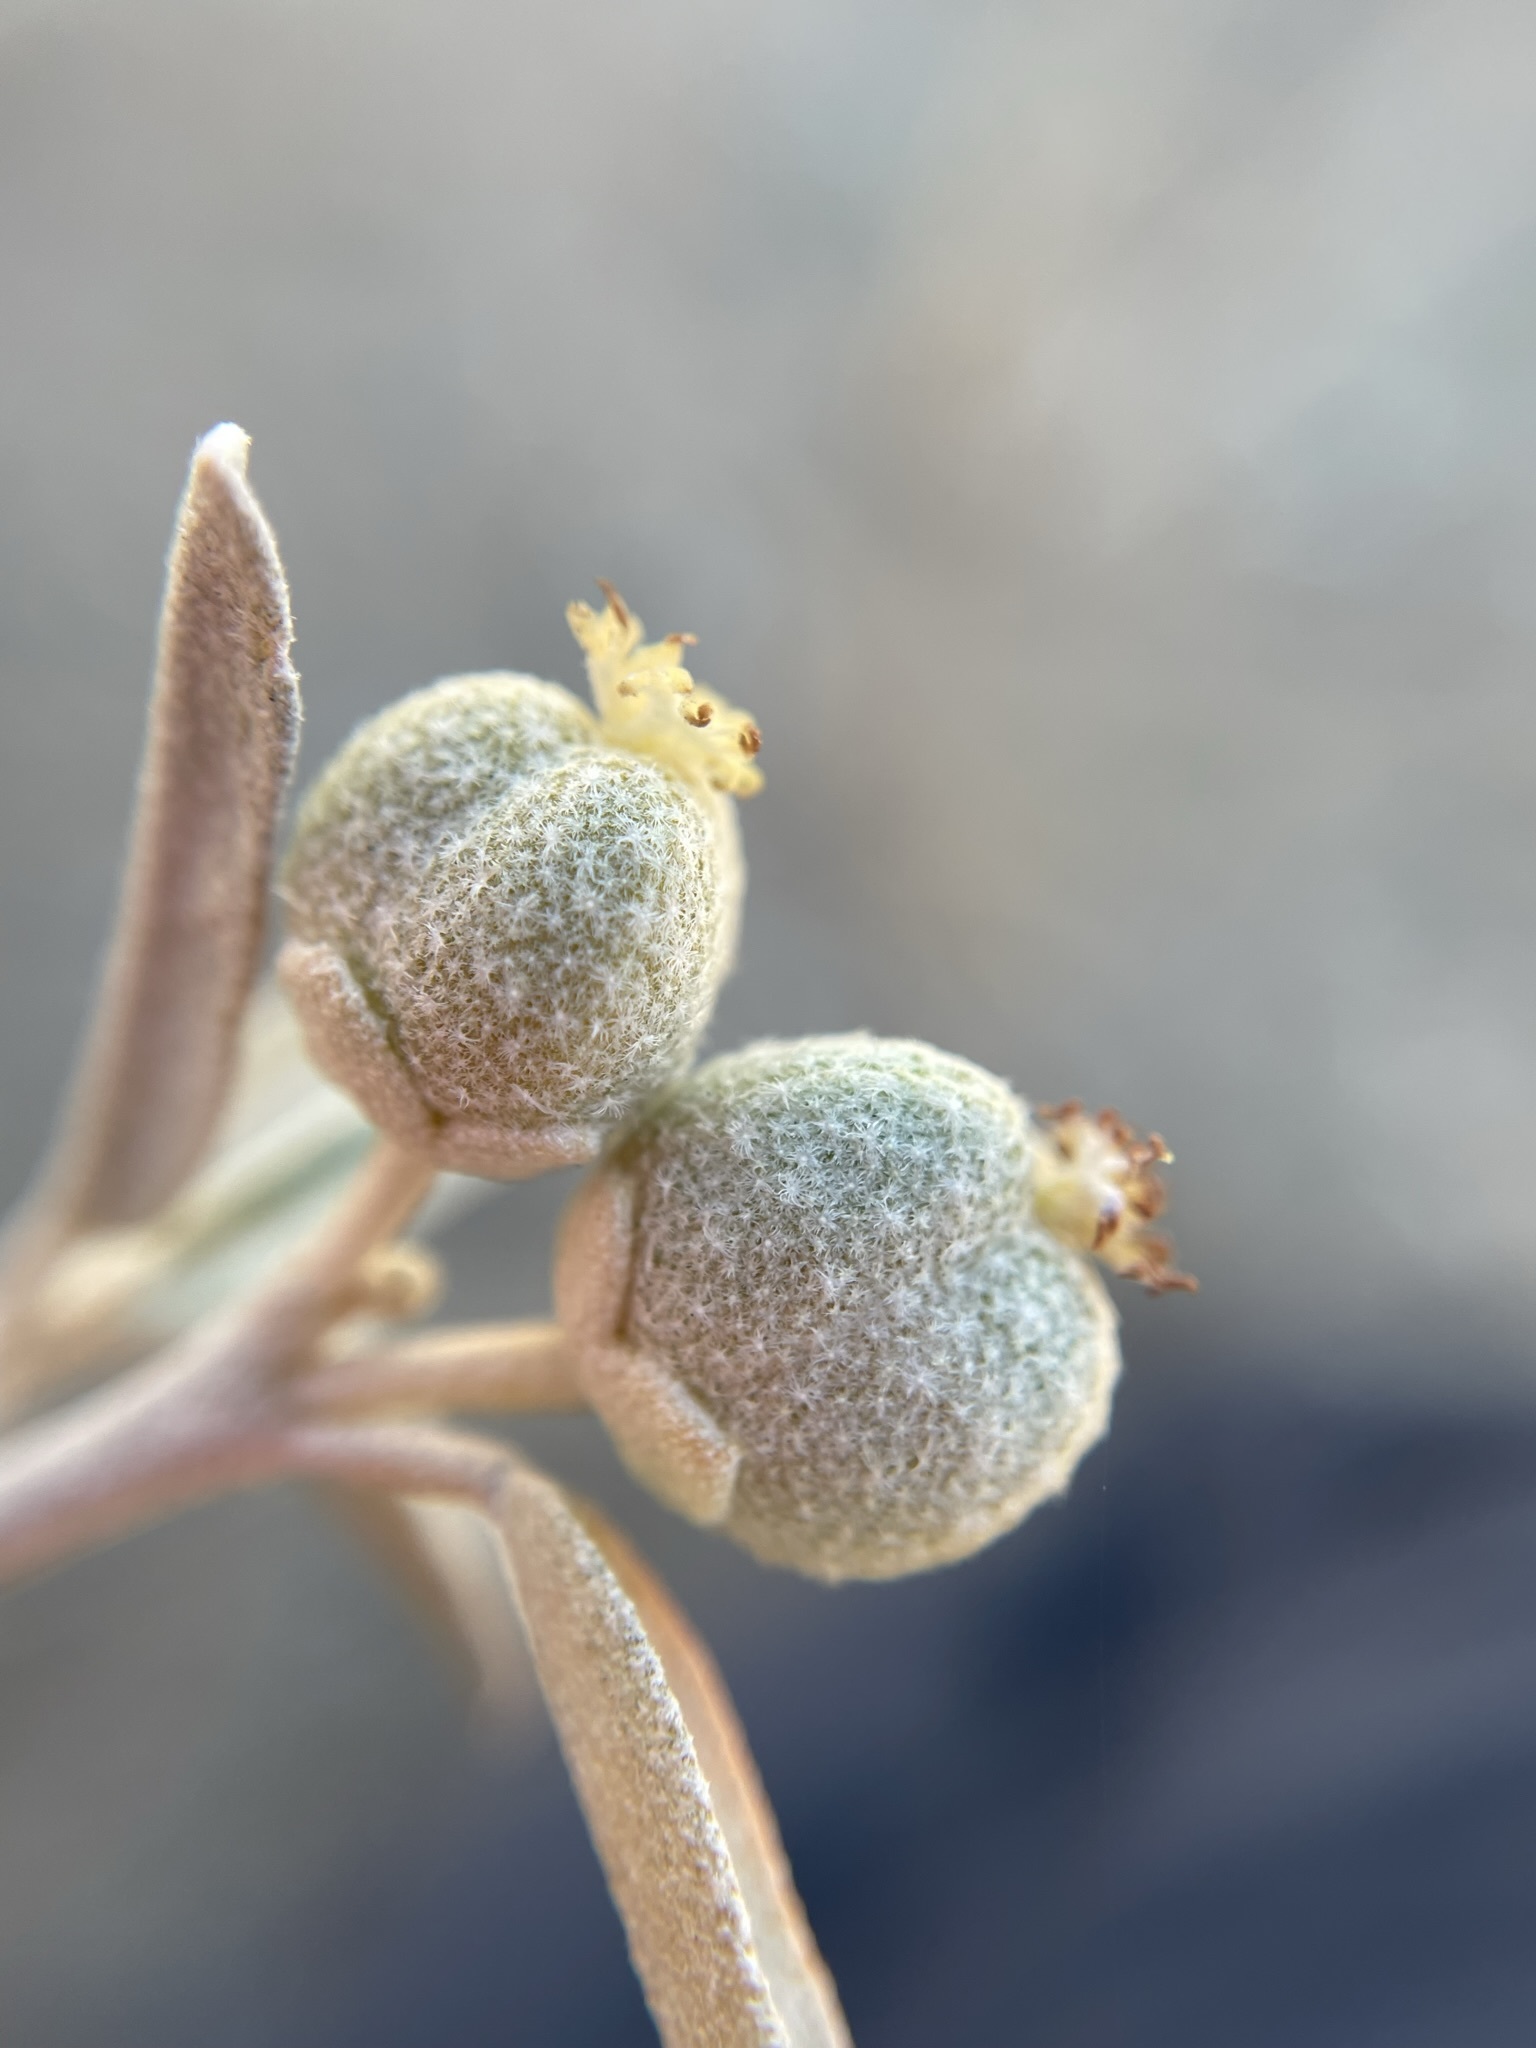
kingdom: Plantae
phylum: Tracheophyta
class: Magnoliopsida
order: Malpighiales
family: Euphorbiaceae
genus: Croton
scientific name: Croton wigginsii
